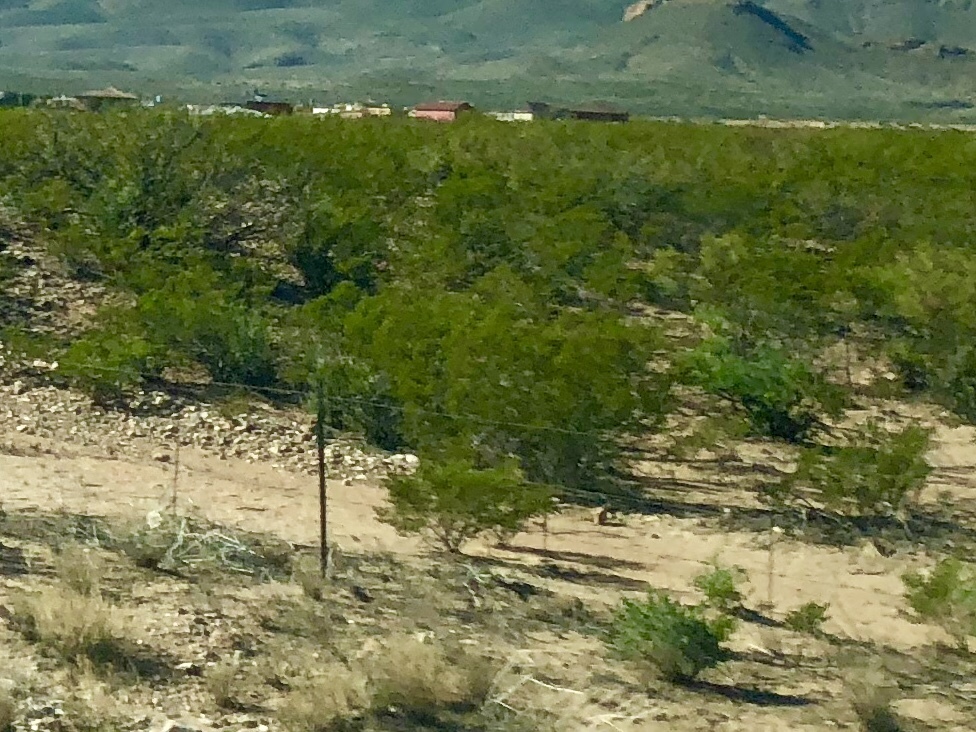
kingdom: Plantae
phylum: Tracheophyta
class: Magnoliopsida
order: Zygophyllales
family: Zygophyllaceae
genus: Larrea
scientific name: Larrea tridentata
